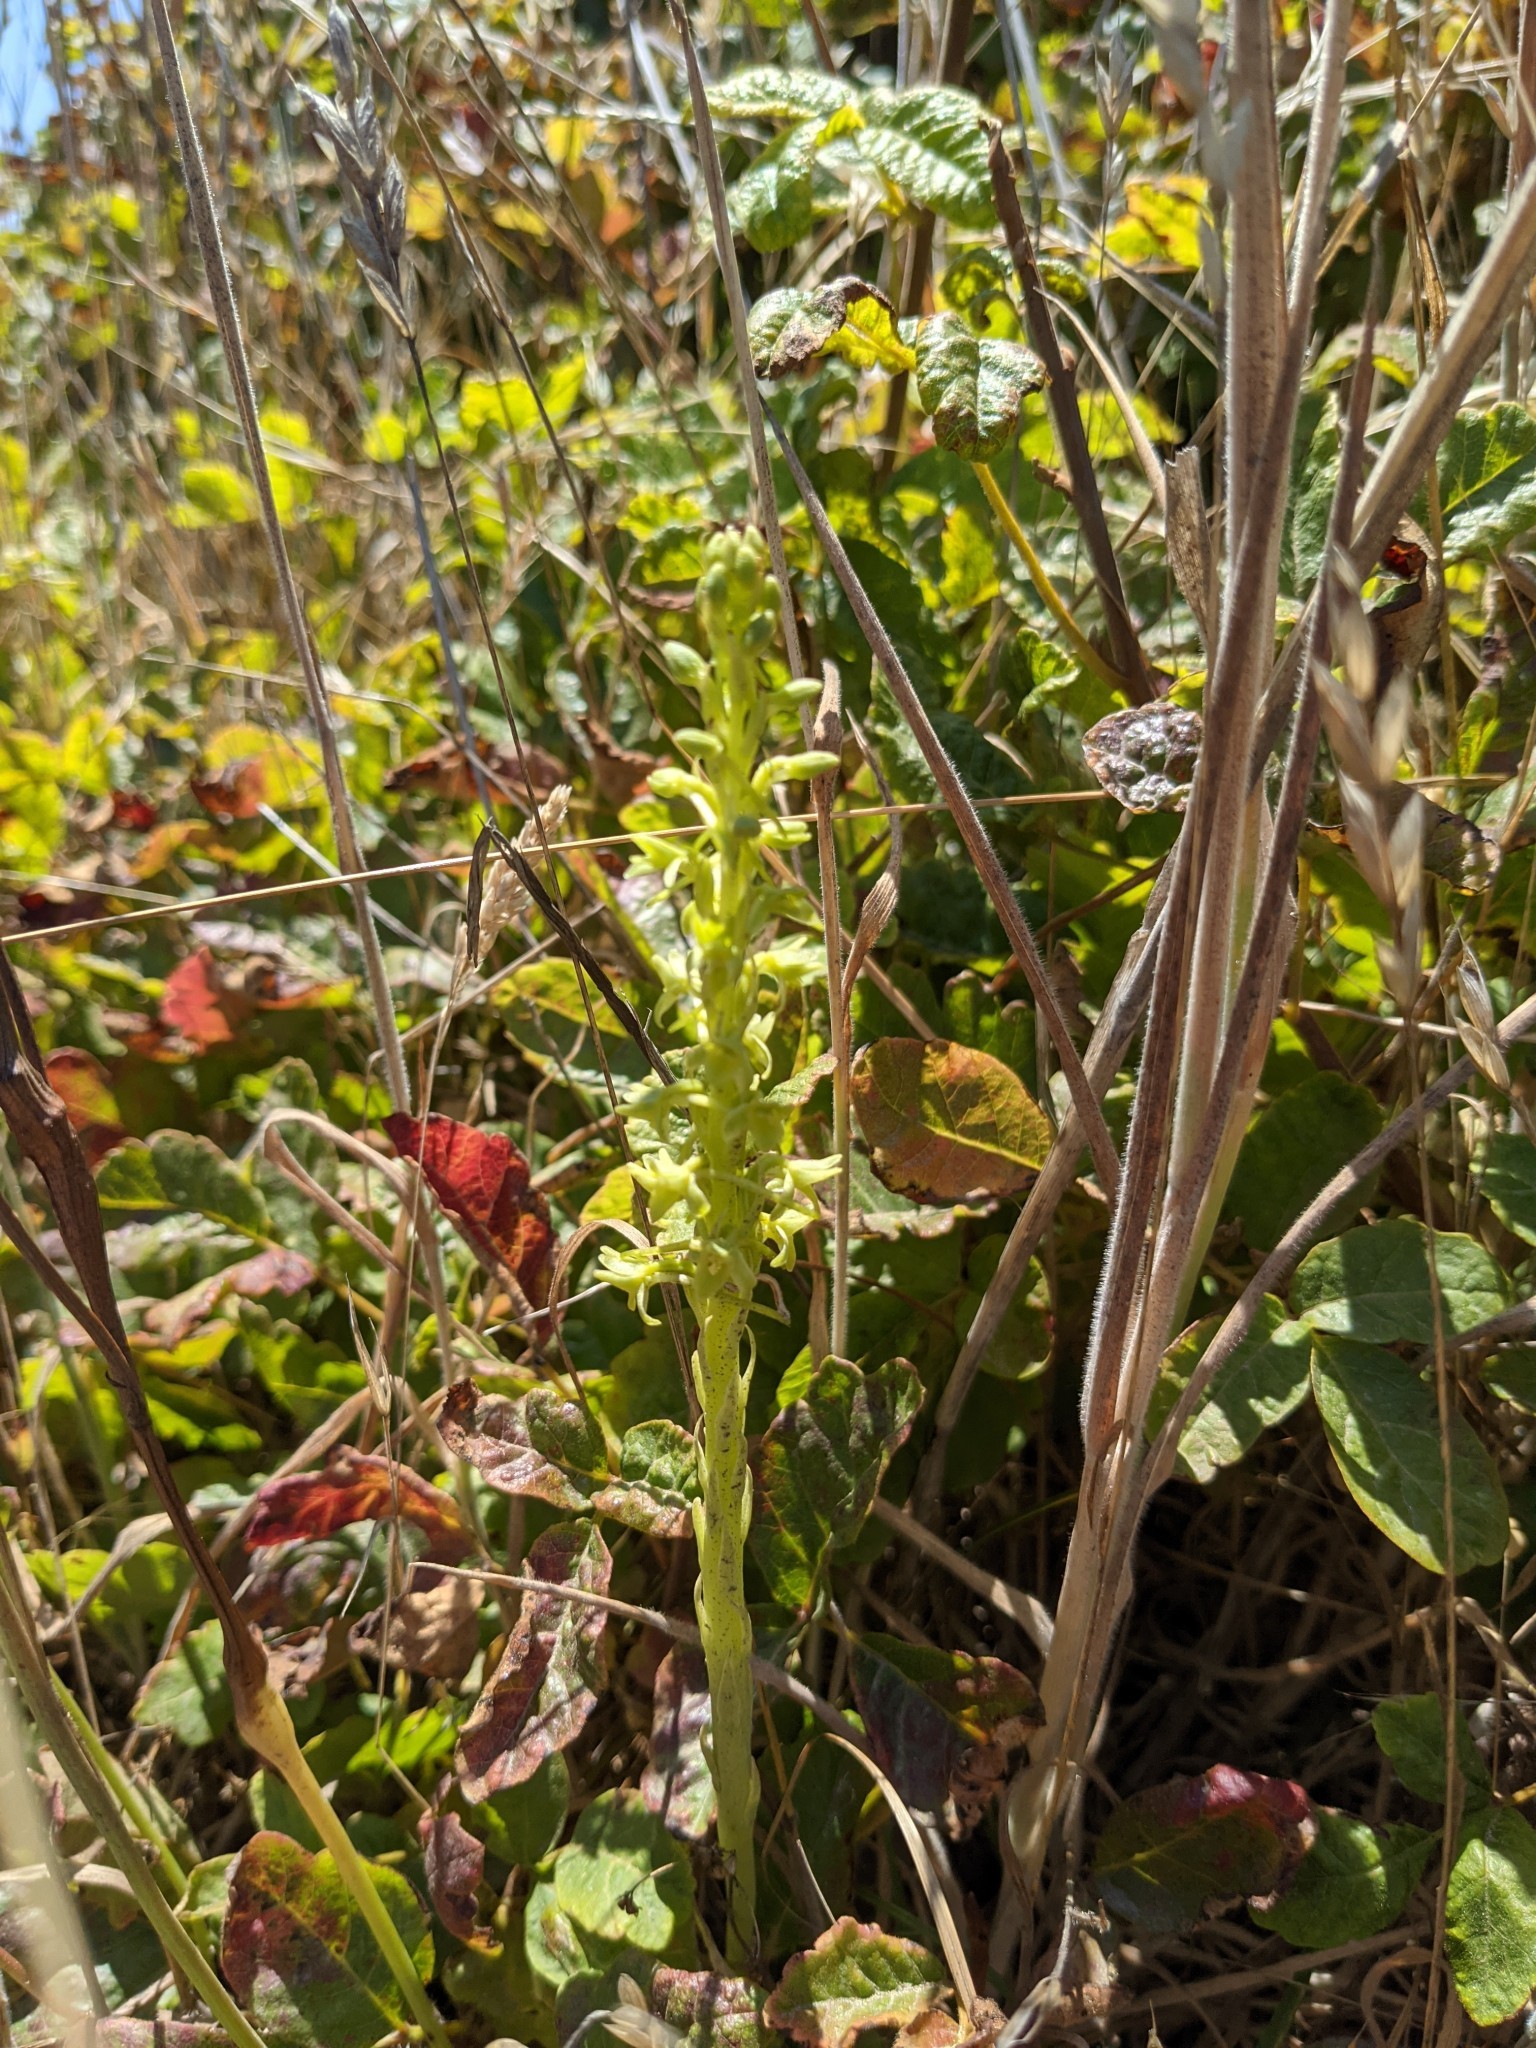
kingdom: Plantae
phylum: Tracheophyta
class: Liliopsida
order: Asparagales
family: Orchidaceae
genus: Platanthera
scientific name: Platanthera michaelii
